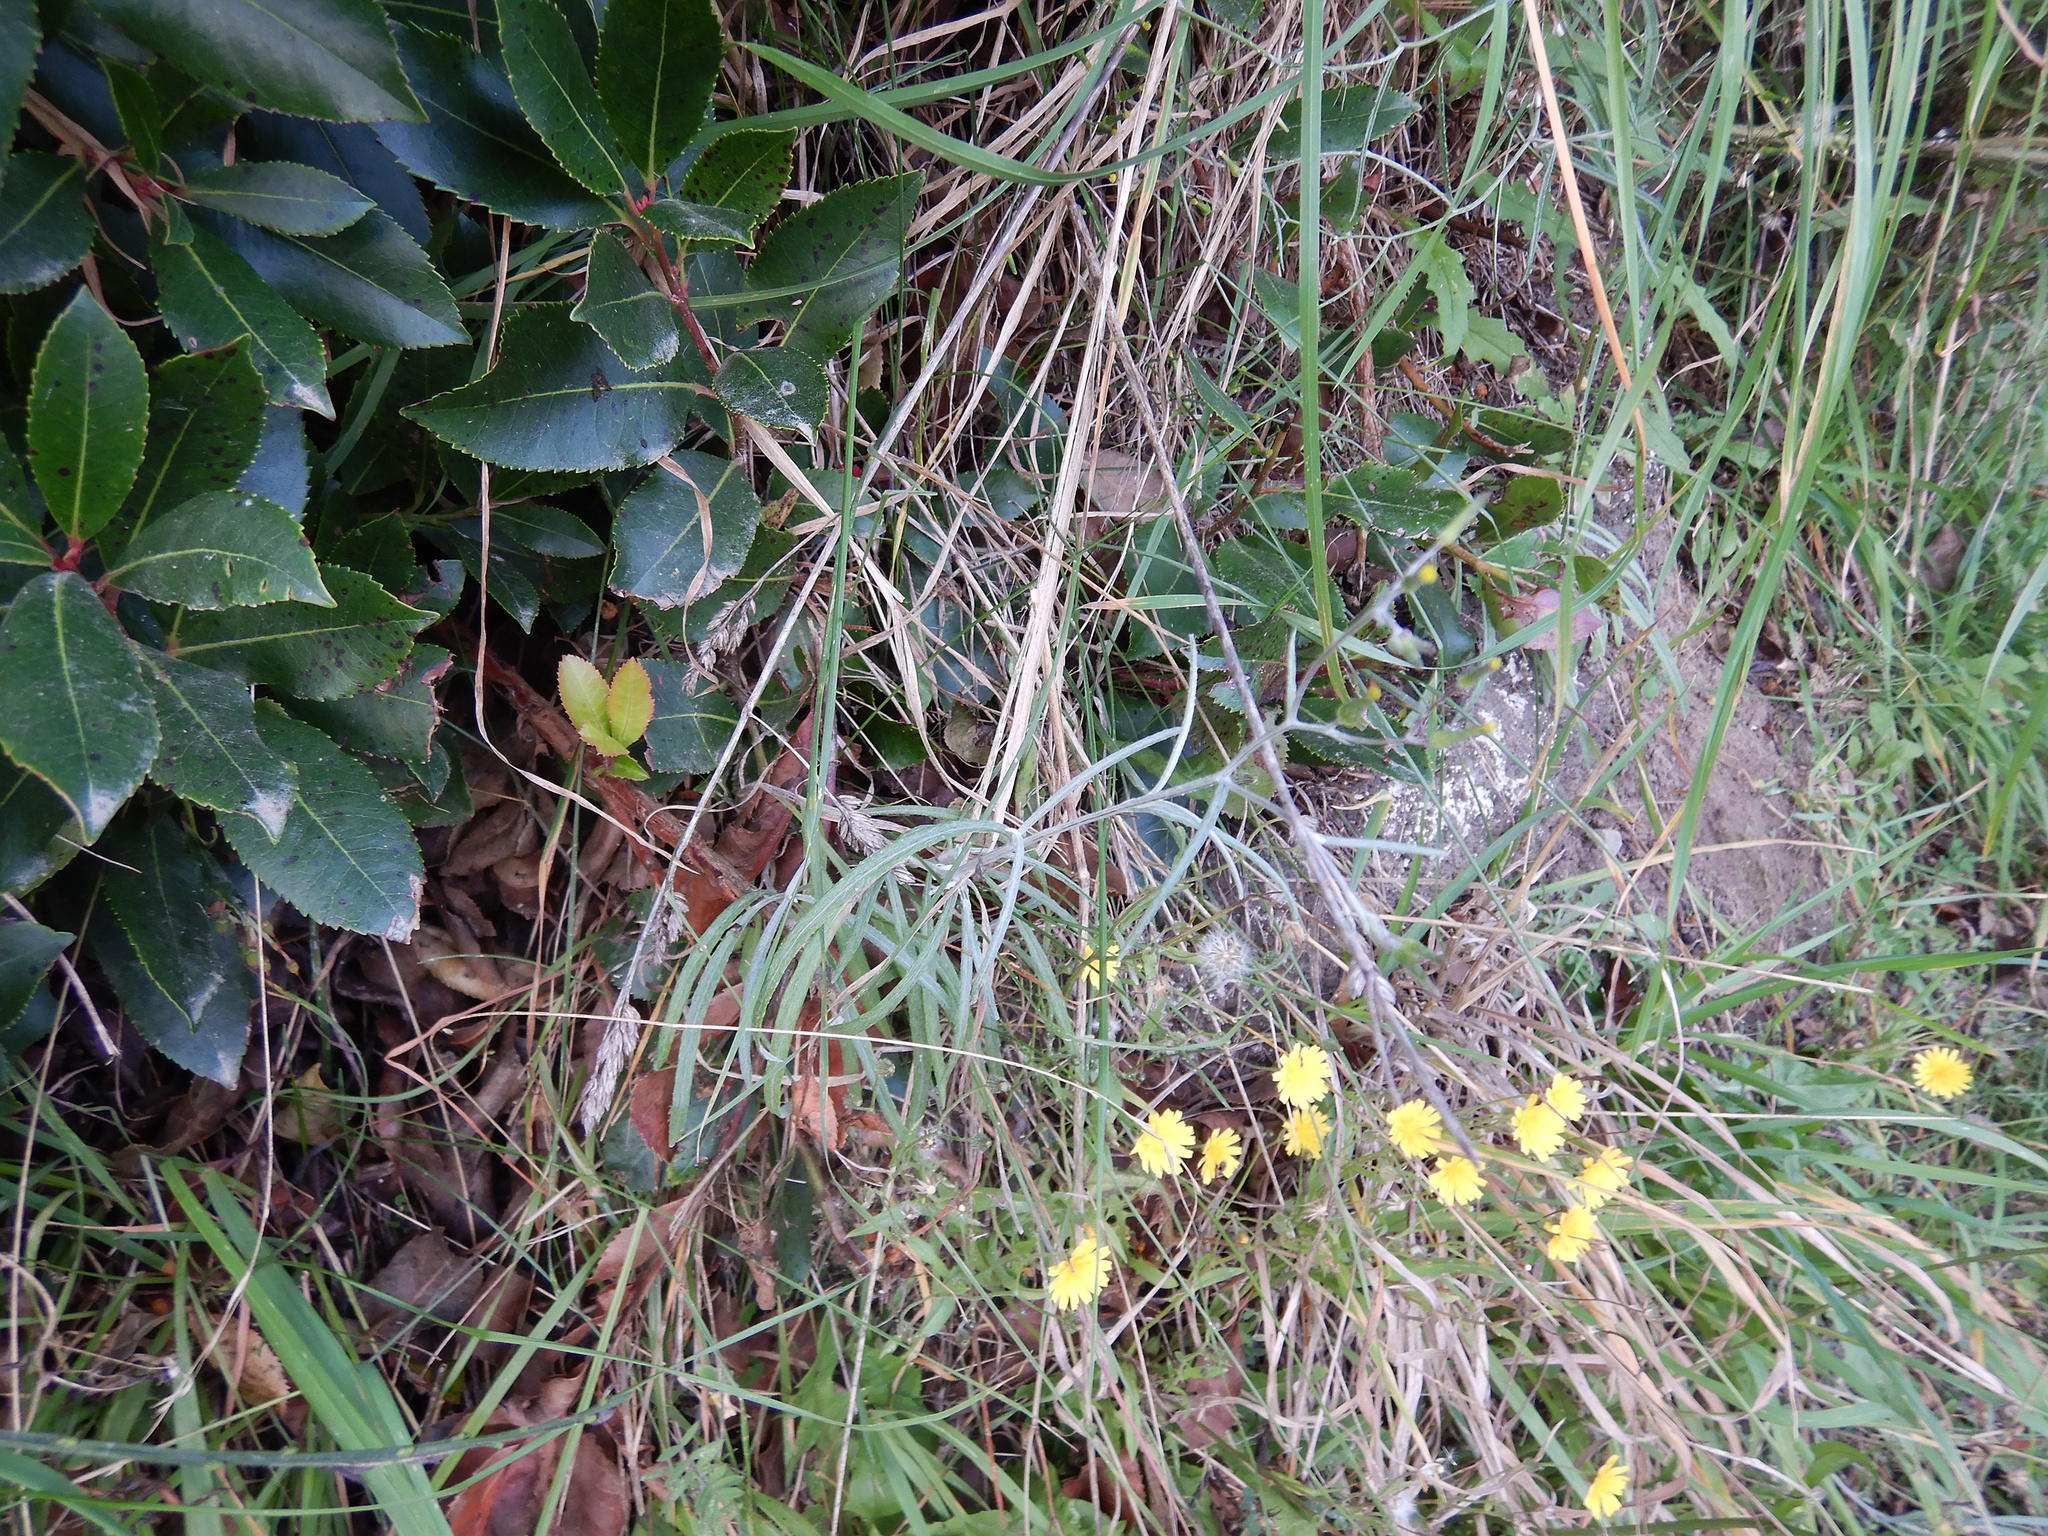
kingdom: Plantae
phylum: Tracheophyta
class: Magnoliopsida
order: Asterales
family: Asteraceae
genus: Senecio
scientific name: Senecio quadridentatus
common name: Cotton fireweed
